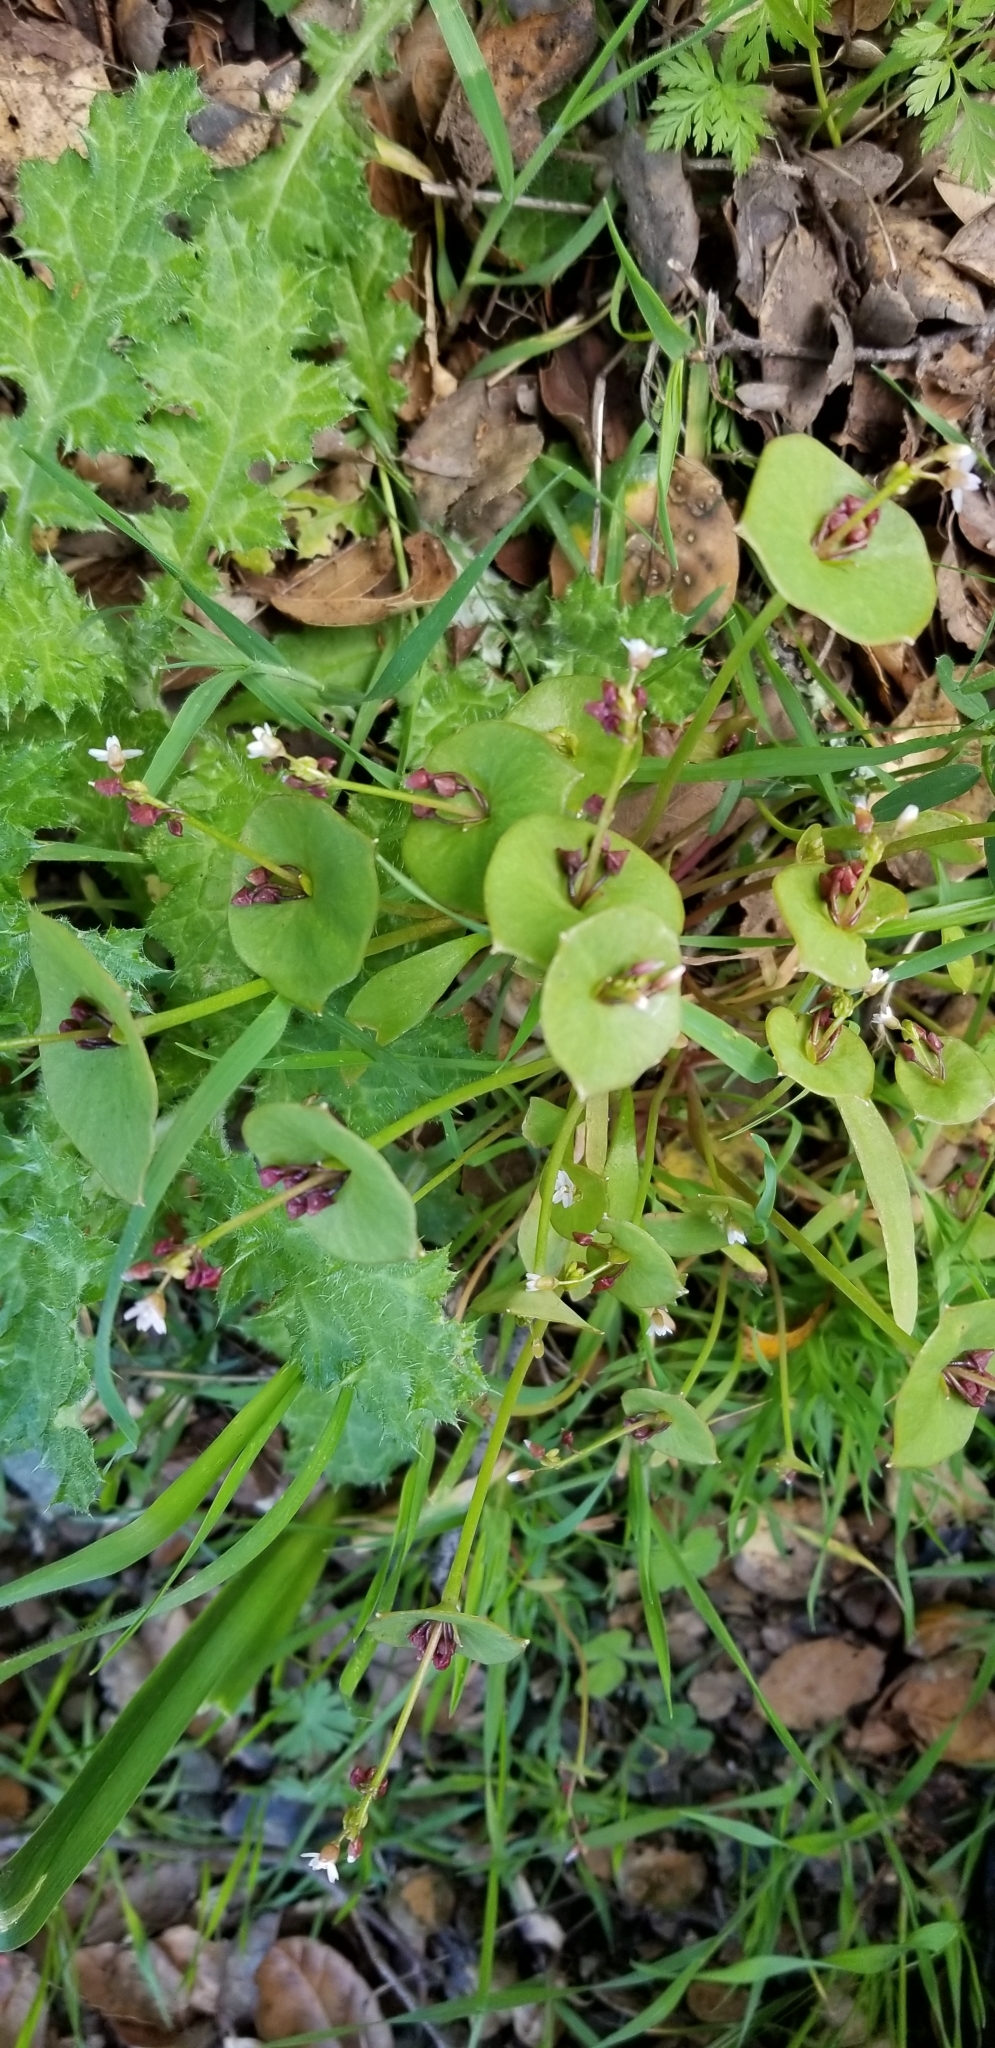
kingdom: Plantae
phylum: Tracheophyta
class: Magnoliopsida
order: Caryophyllales
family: Montiaceae
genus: Claytonia
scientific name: Claytonia perfoliata
